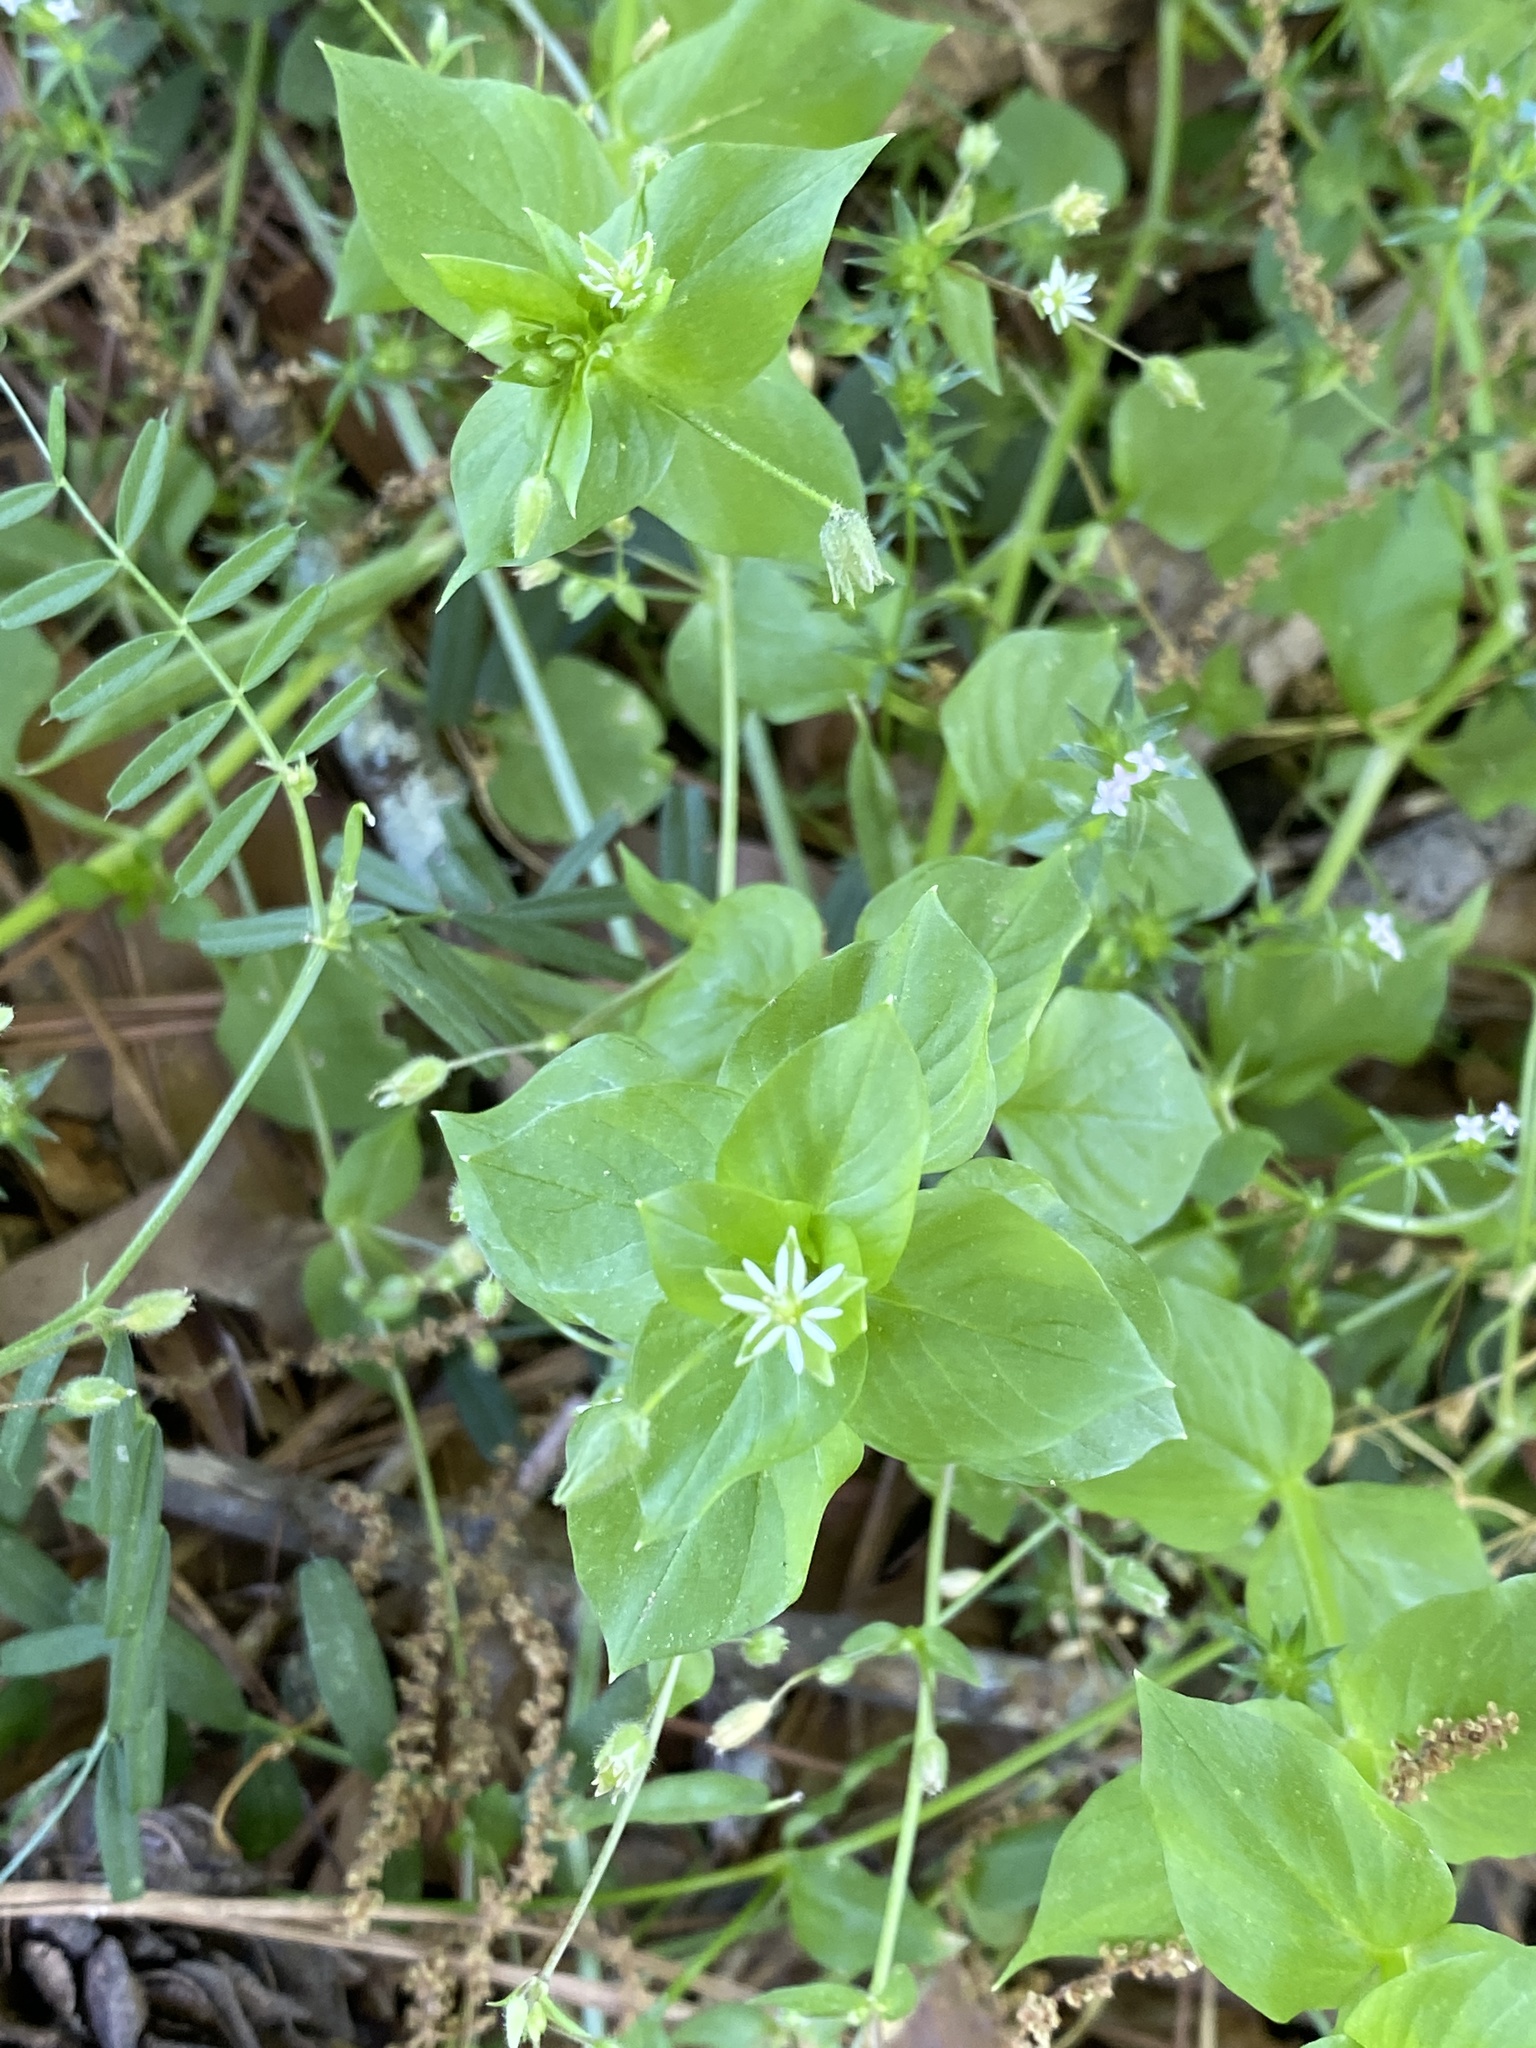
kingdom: Plantae
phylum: Tracheophyta
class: Magnoliopsida
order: Caryophyllales
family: Caryophyllaceae
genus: Stellaria
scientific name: Stellaria media
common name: Common chickweed
